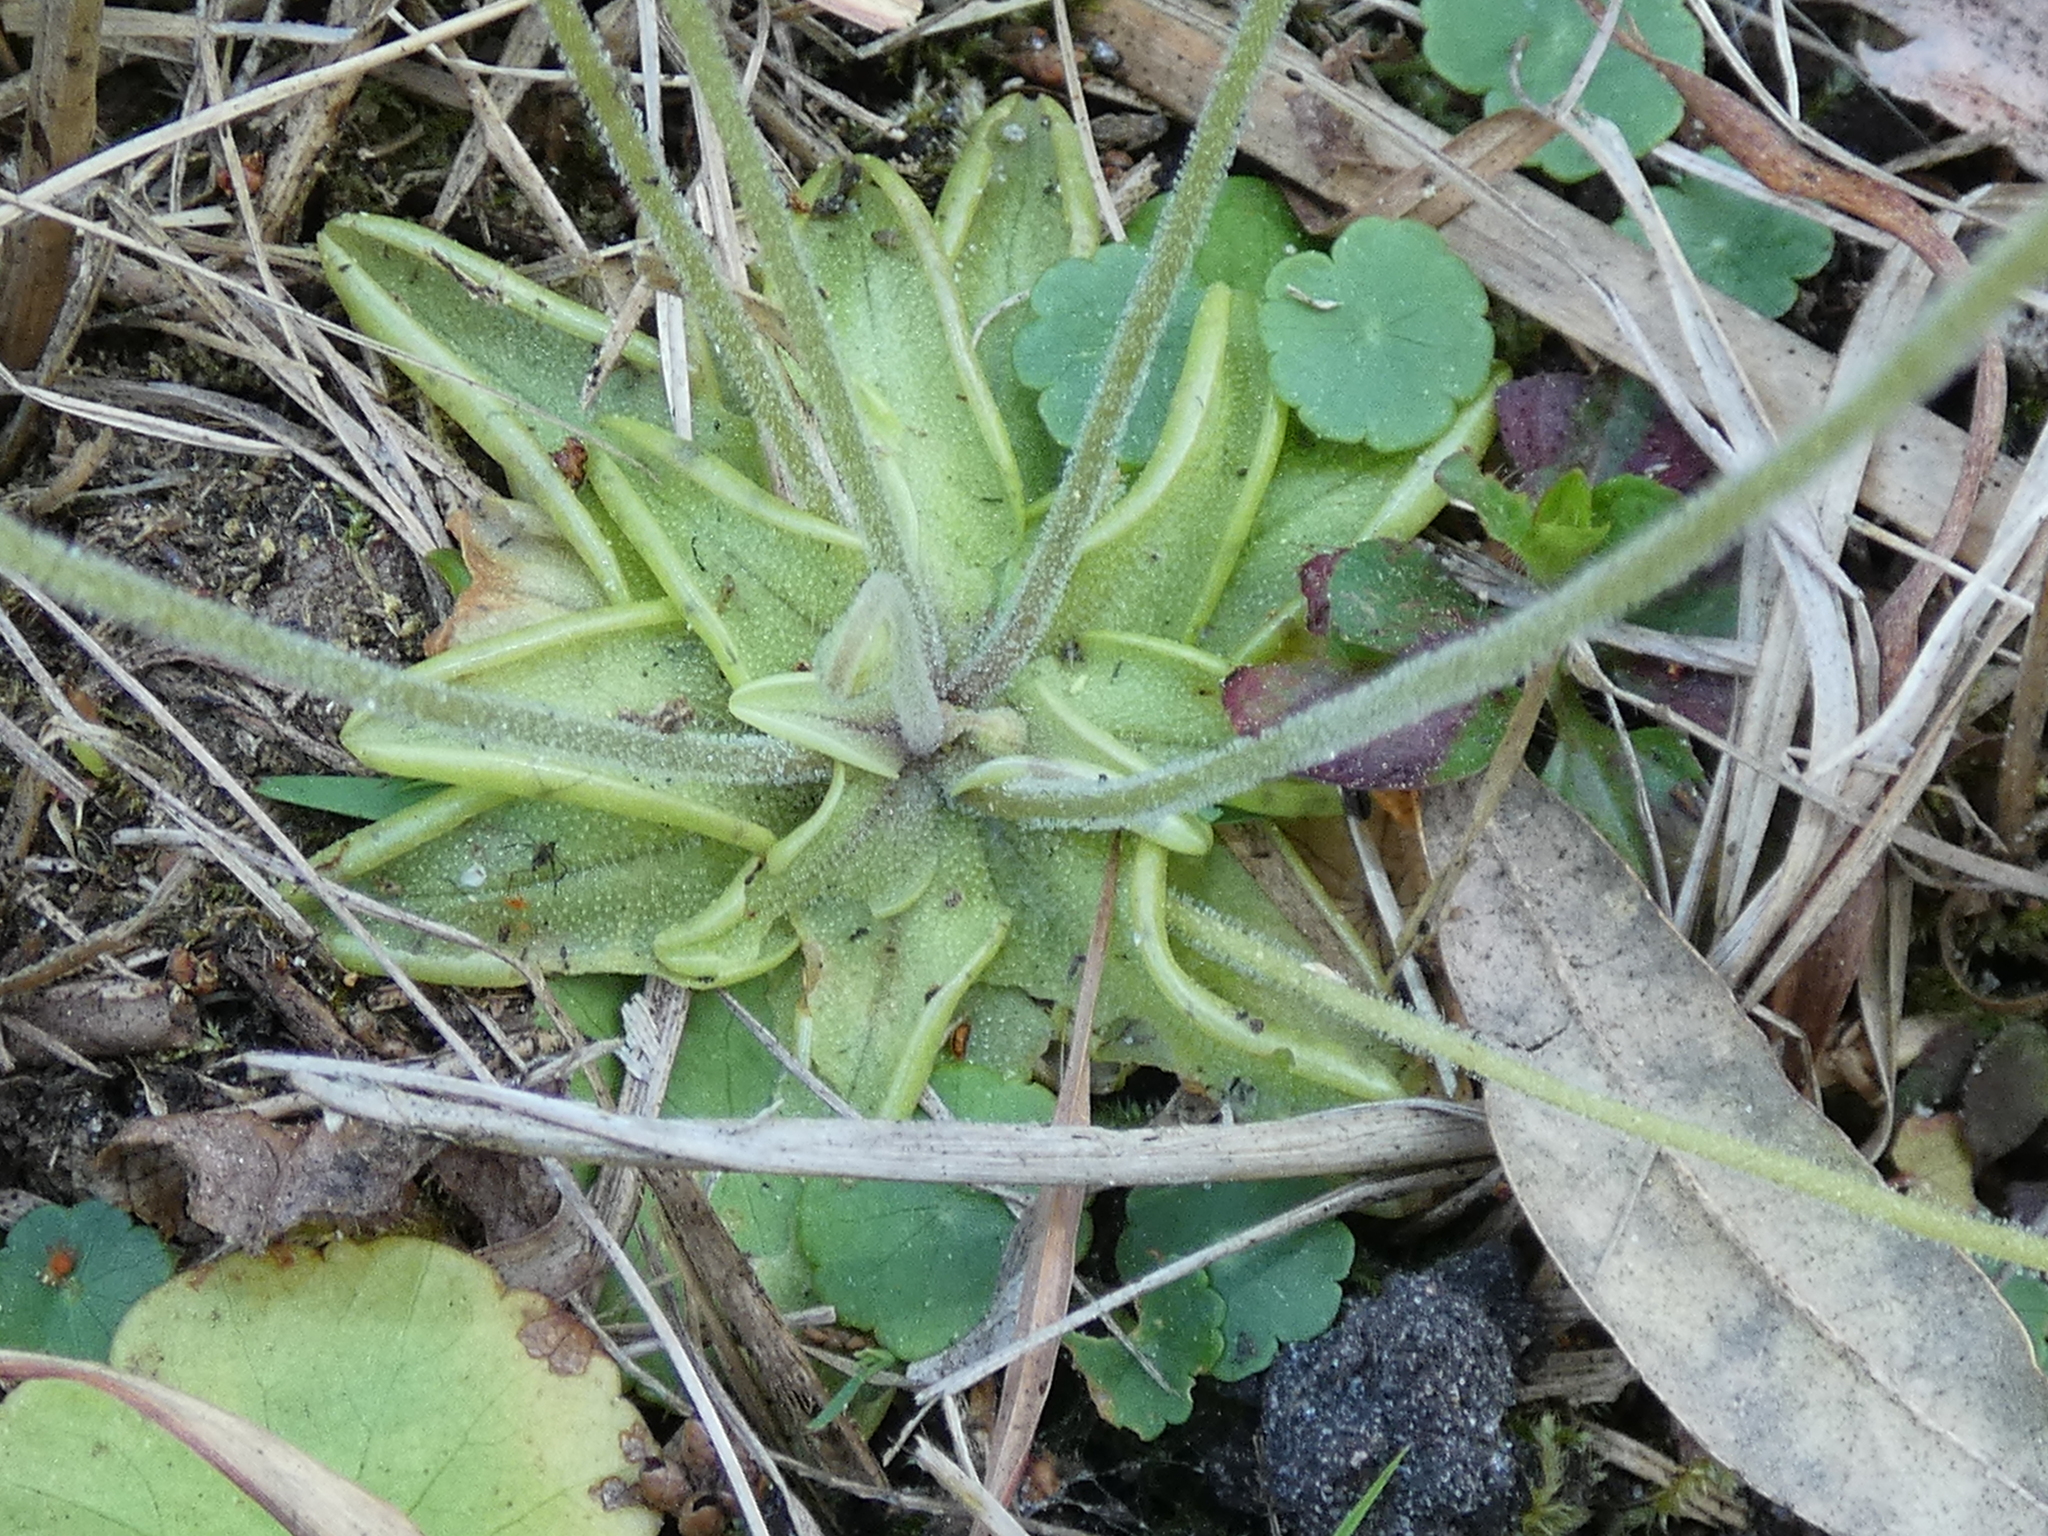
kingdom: Plantae
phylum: Tracheophyta
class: Magnoliopsida
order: Lamiales
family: Lentibulariaceae
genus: Pinguicula
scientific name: Pinguicula pumila
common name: Small butterwort
